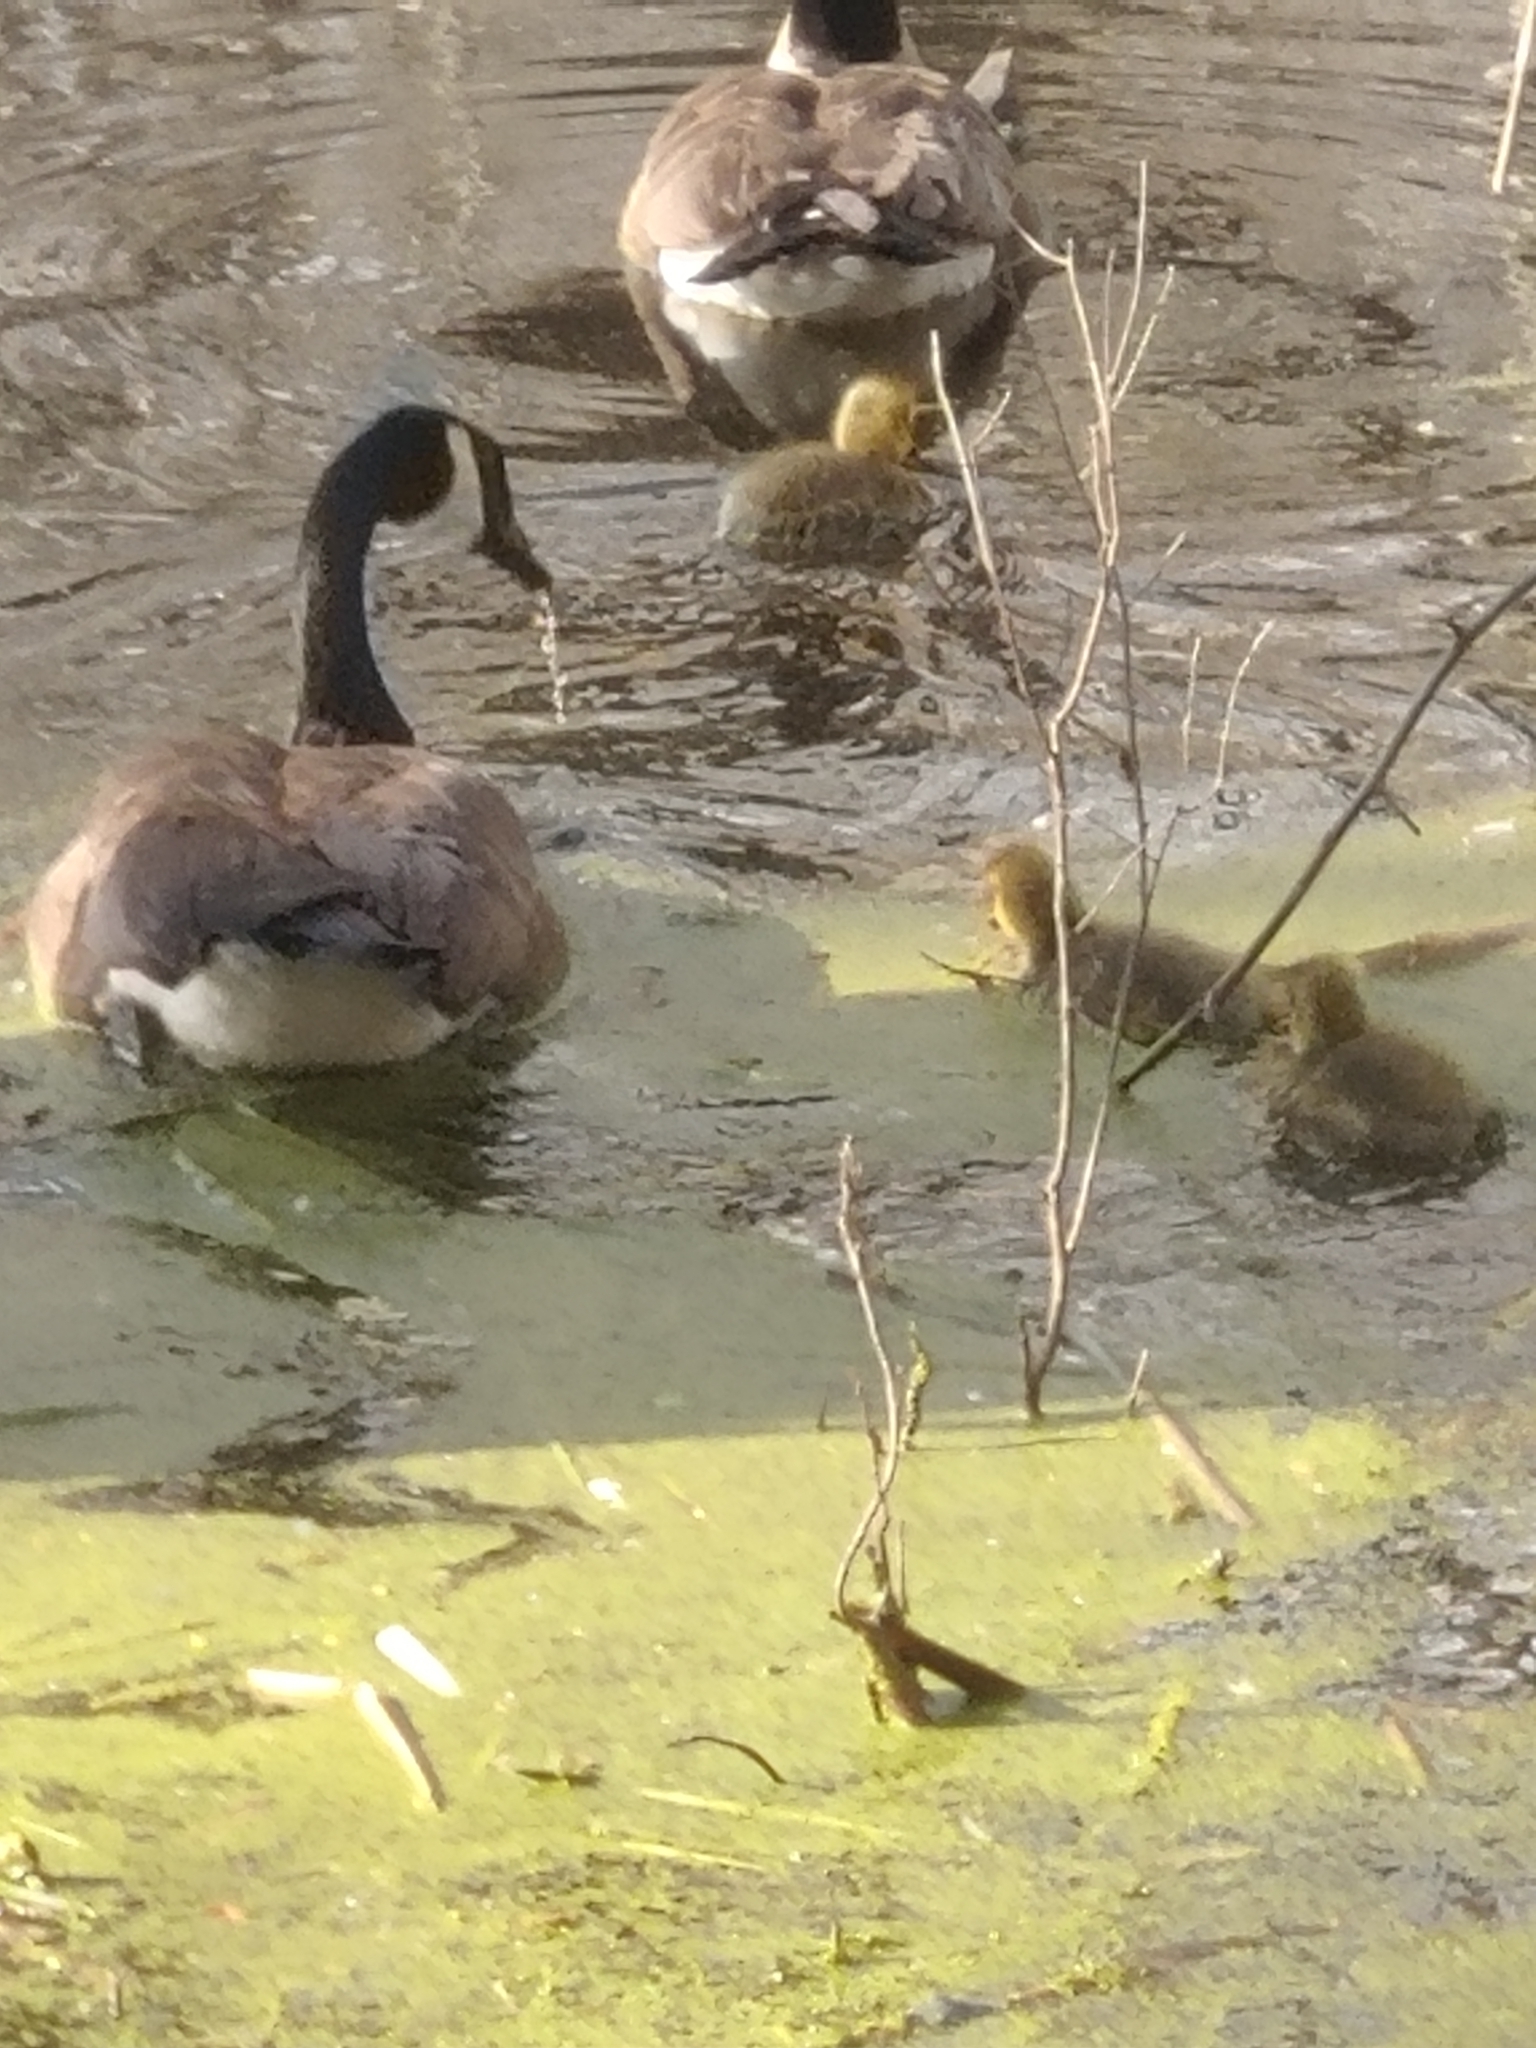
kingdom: Animalia
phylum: Chordata
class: Aves
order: Anseriformes
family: Anatidae
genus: Branta
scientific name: Branta canadensis
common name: Canada goose
